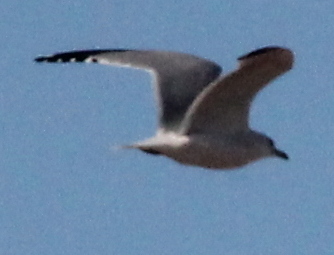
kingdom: Animalia
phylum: Chordata
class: Aves
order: Charadriiformes
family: Laridae
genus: Larus
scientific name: Larus delawarensis
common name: Ring-billed gull
